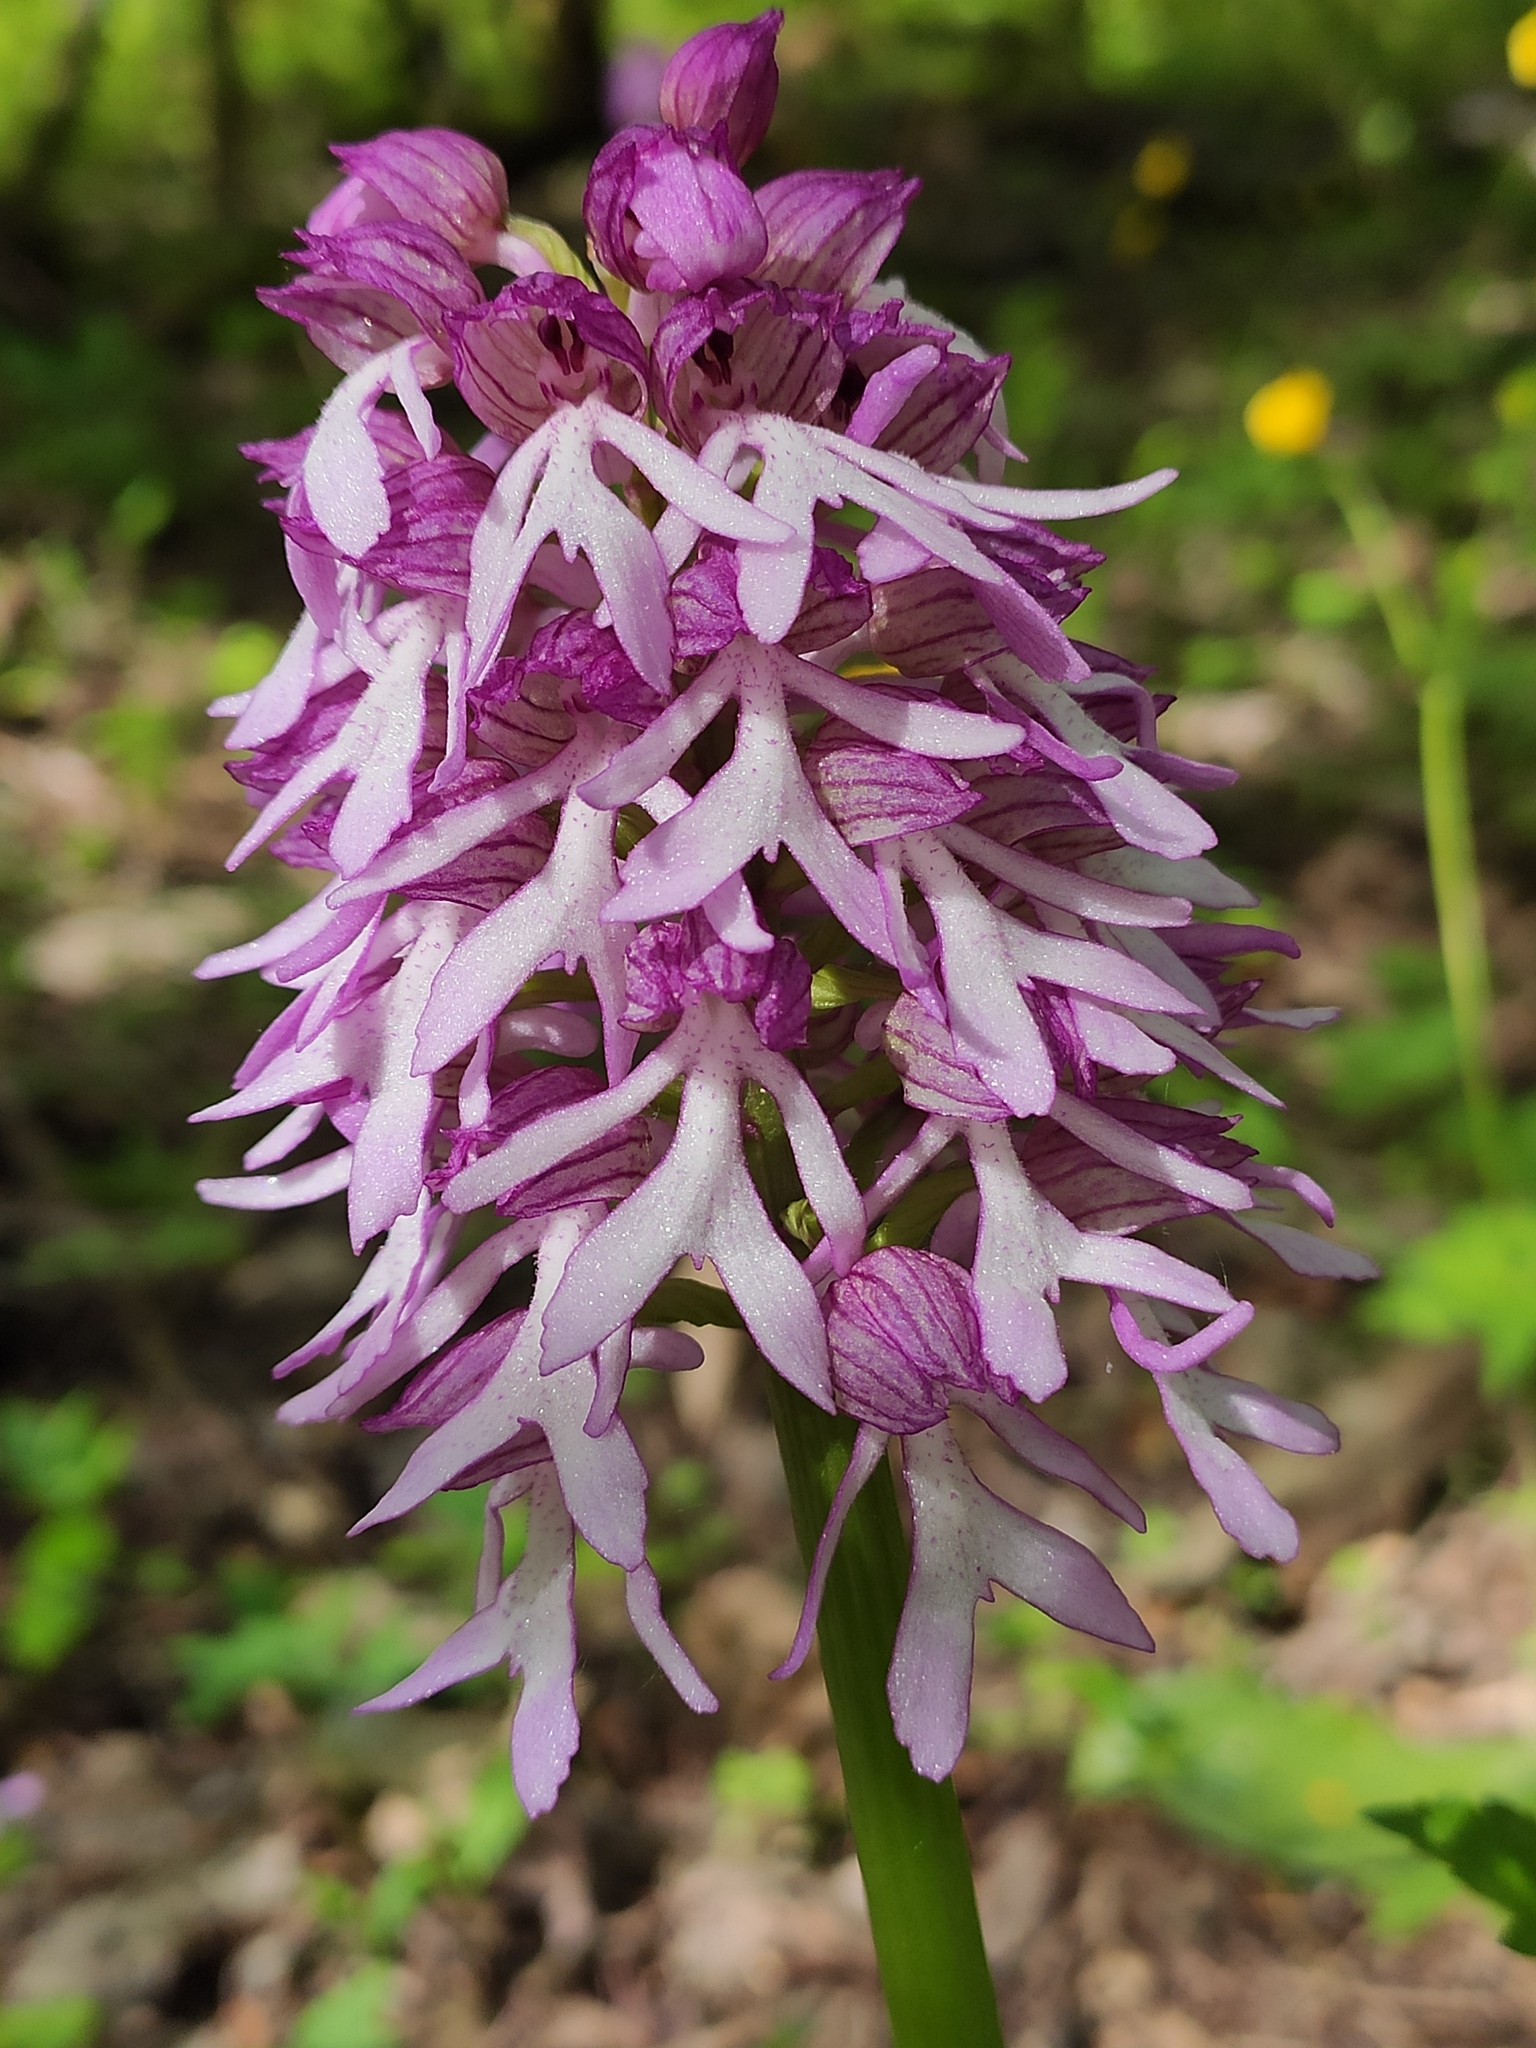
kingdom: Plantae
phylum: Tracheophyta
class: Liliopsida
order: Asparagales
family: Orchidaceae
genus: Orchis
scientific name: Orchis purpurea
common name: Lady orchid
